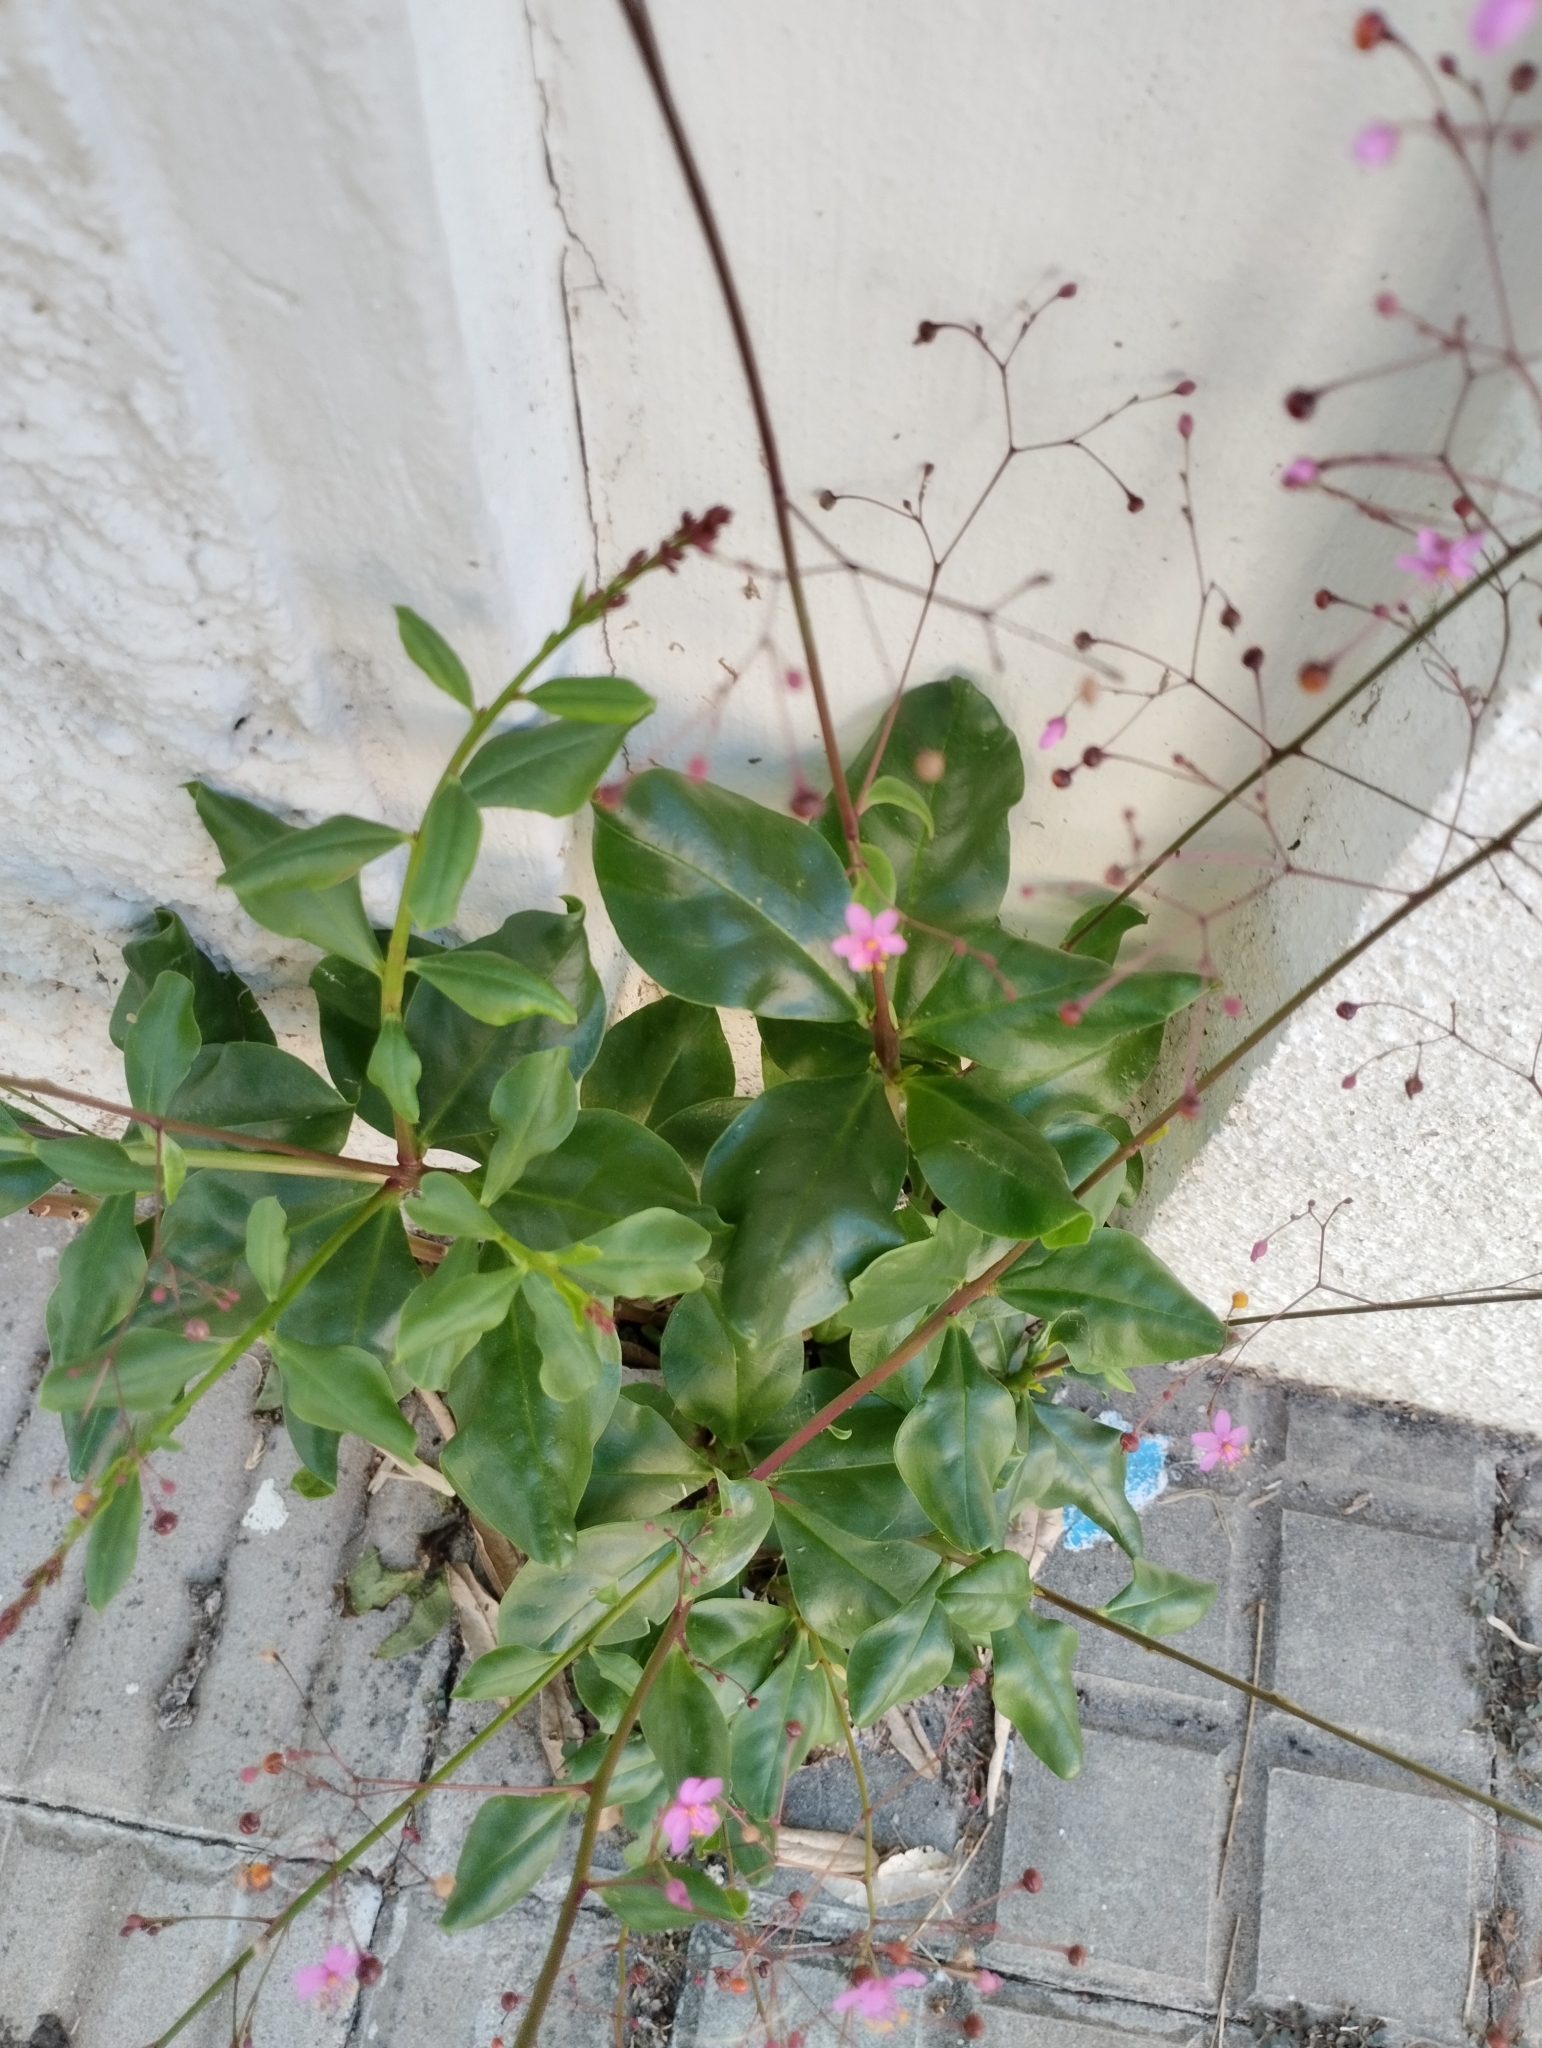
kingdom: Plantae
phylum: Tracheophyta
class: Magnoliopsida
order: Caryophyllales
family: Talinaceae
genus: Talinum
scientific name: Talinum paniculatum
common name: Jewels of opar
